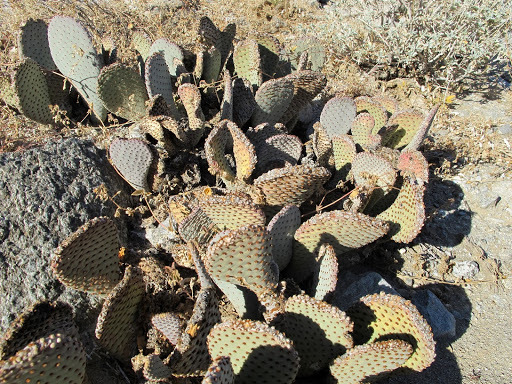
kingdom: Plantae
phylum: Tracheophyta
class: Magnoliopsida
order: Caryophyllales
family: Cactaceae
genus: Opuntia
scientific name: Opuntia basilaris
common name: Beavertail prickly-pear
